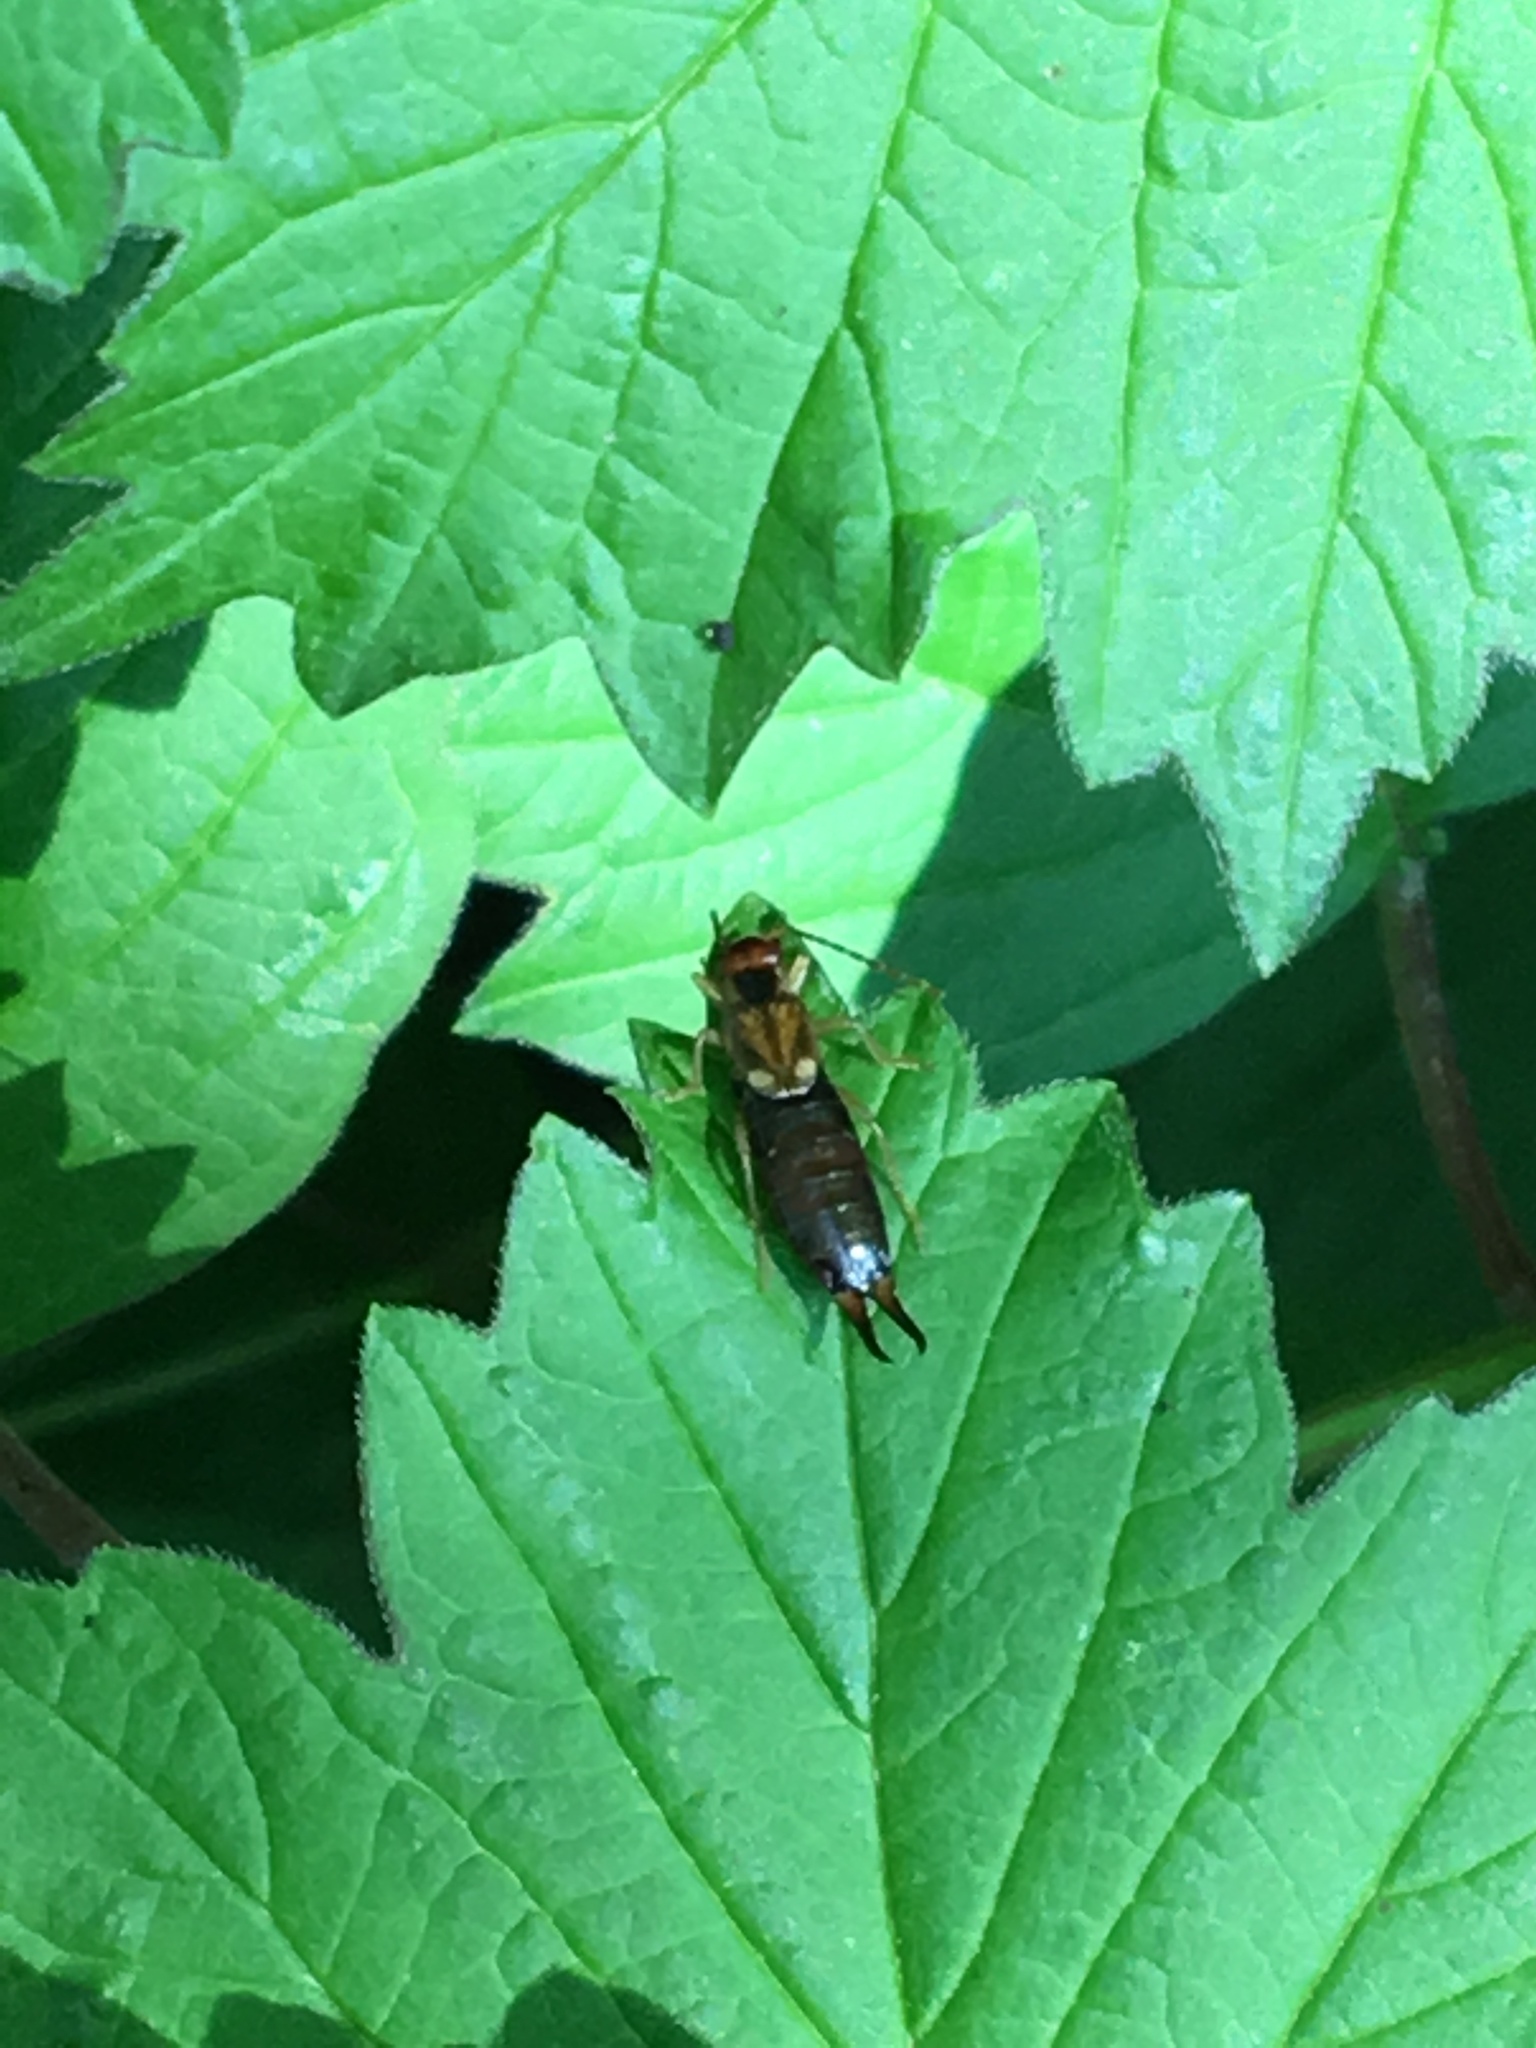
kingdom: Animalia
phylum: Arthropoda
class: Insecta
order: Dermaptera
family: Forficulidae
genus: Forficula
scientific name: Forficula
